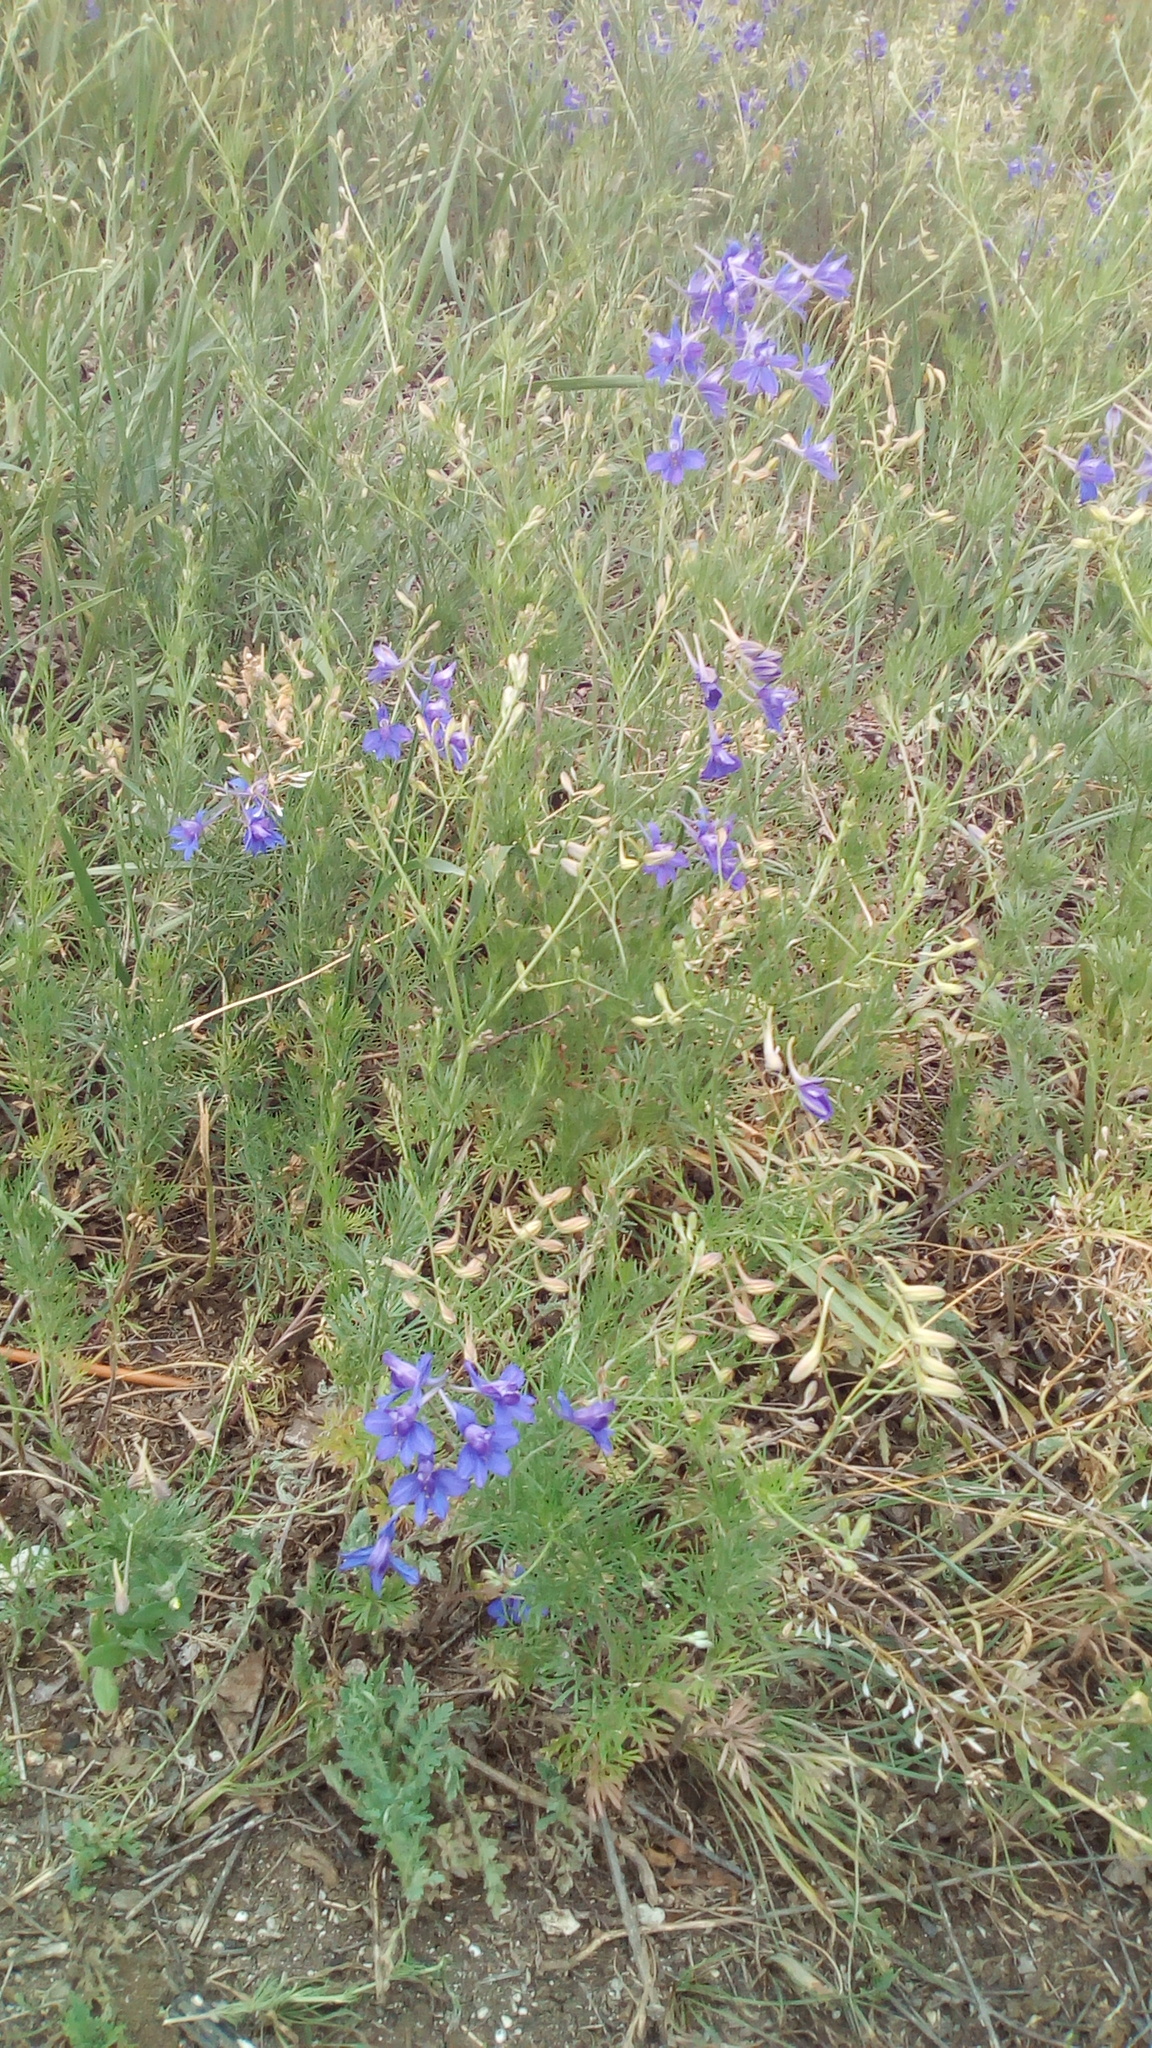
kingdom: Plantae
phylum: Tracheophyta
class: Magnoliopsida
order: Ranunculales
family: Ranunculaceae
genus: Delphinium
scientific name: Delphinium consolida
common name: Branching larkspur
